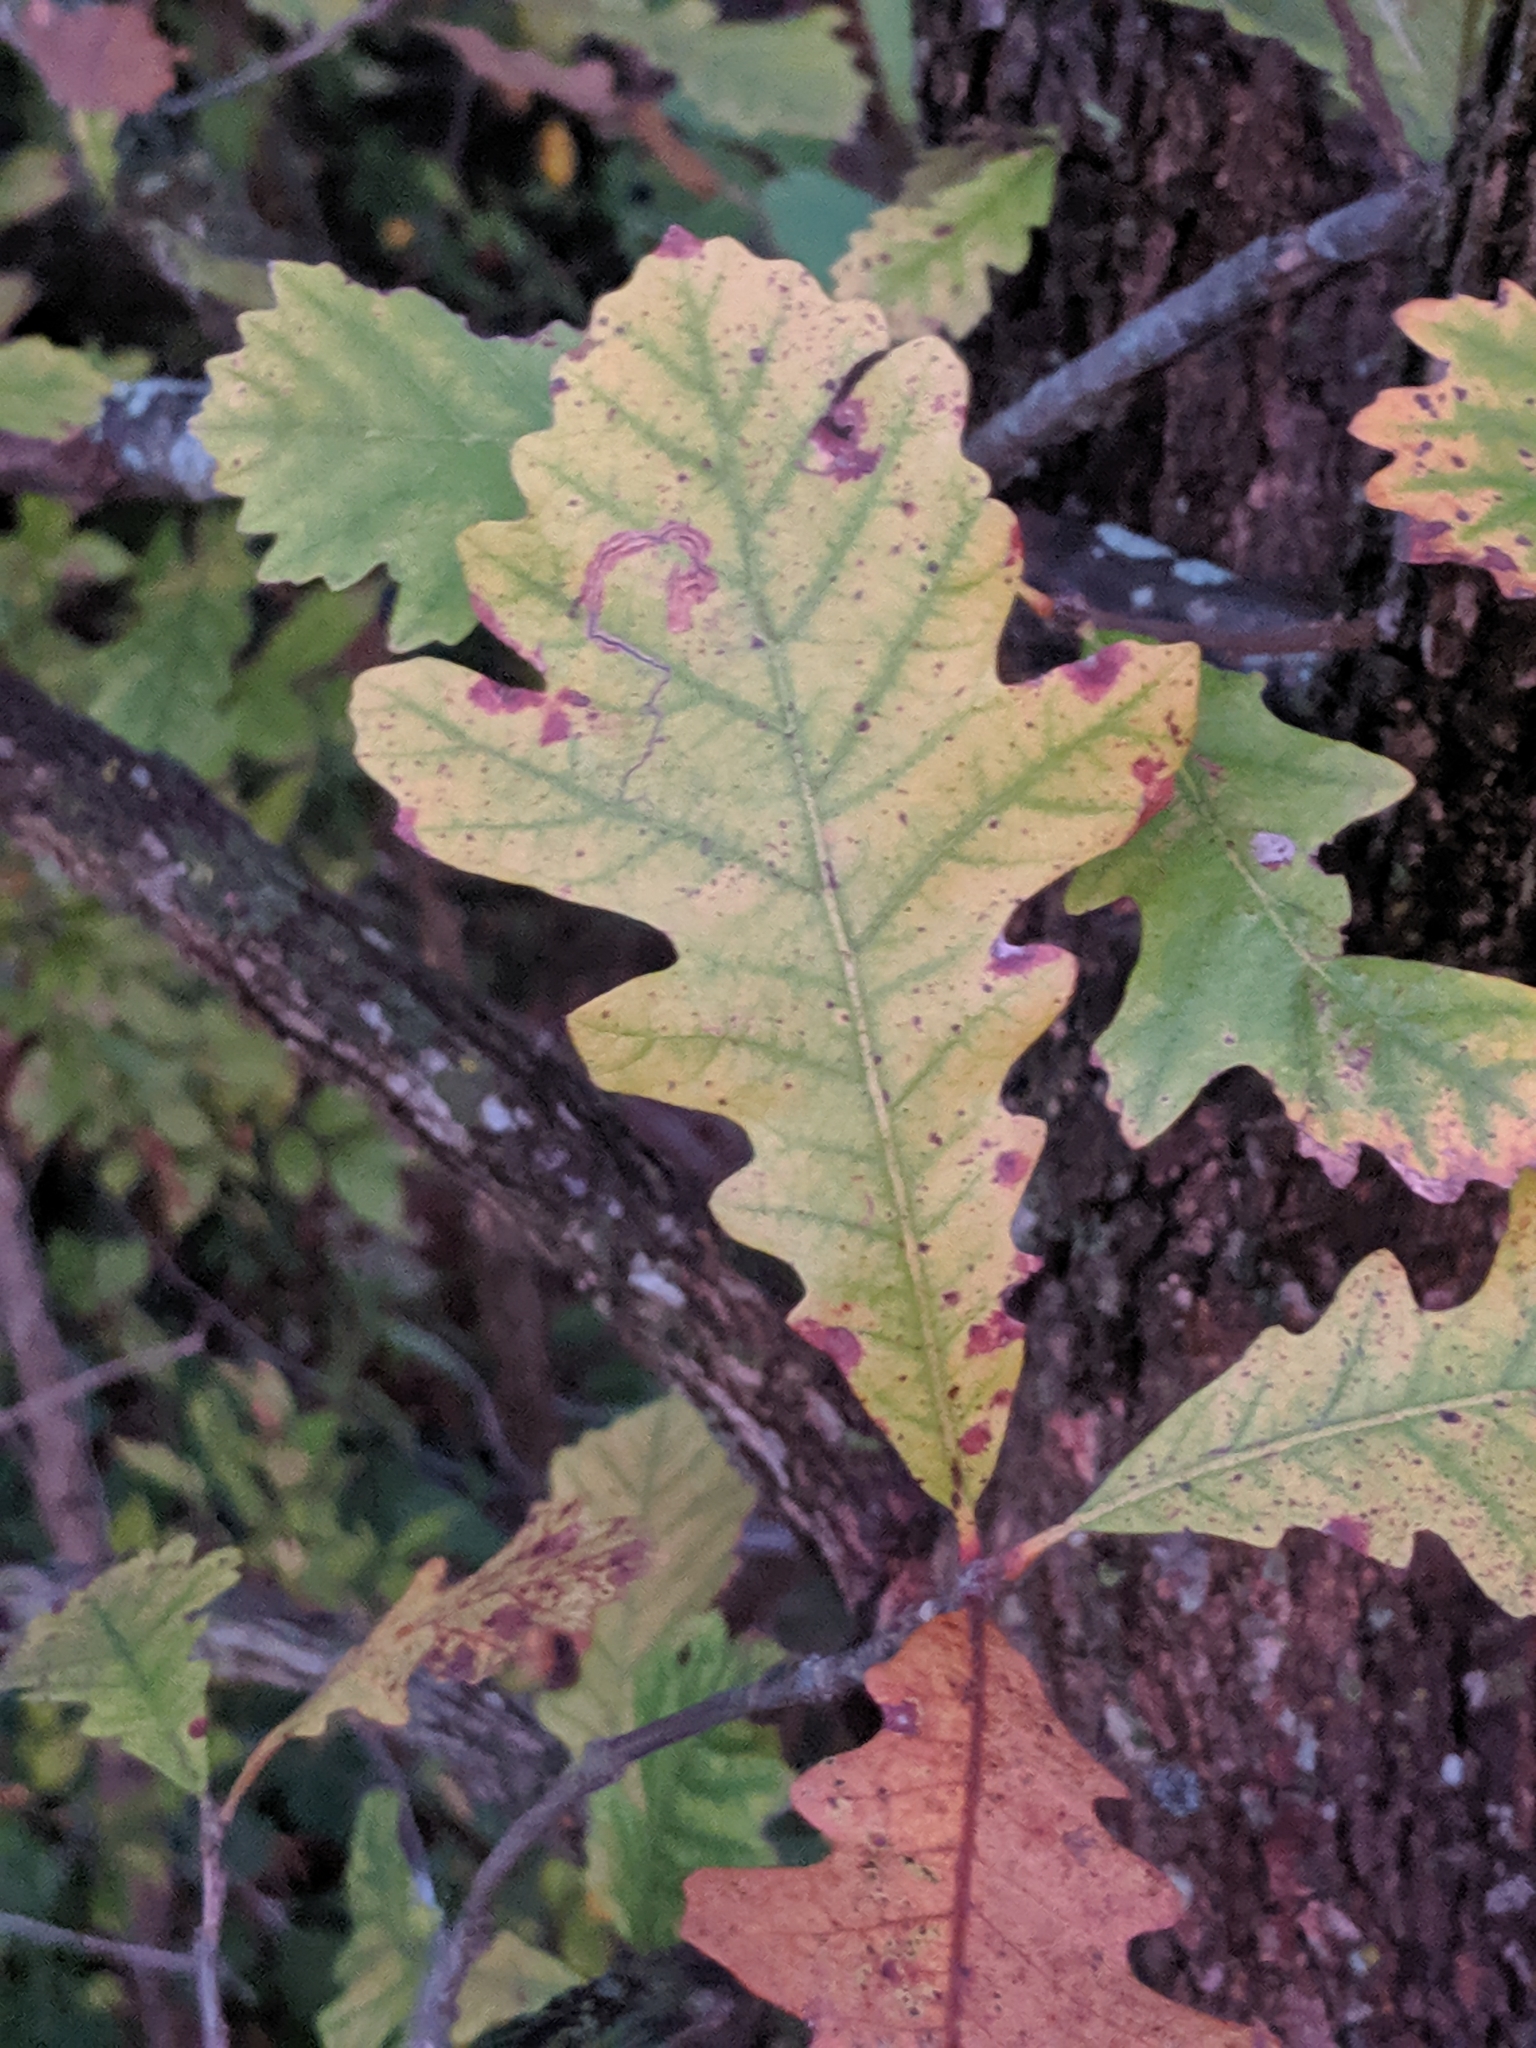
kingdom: Plantae
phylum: Tracheophyta
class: Magnoliopsida
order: Fagales
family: Fagaceae
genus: Quercus
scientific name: Quercus macrocarpa
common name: Bur oak
